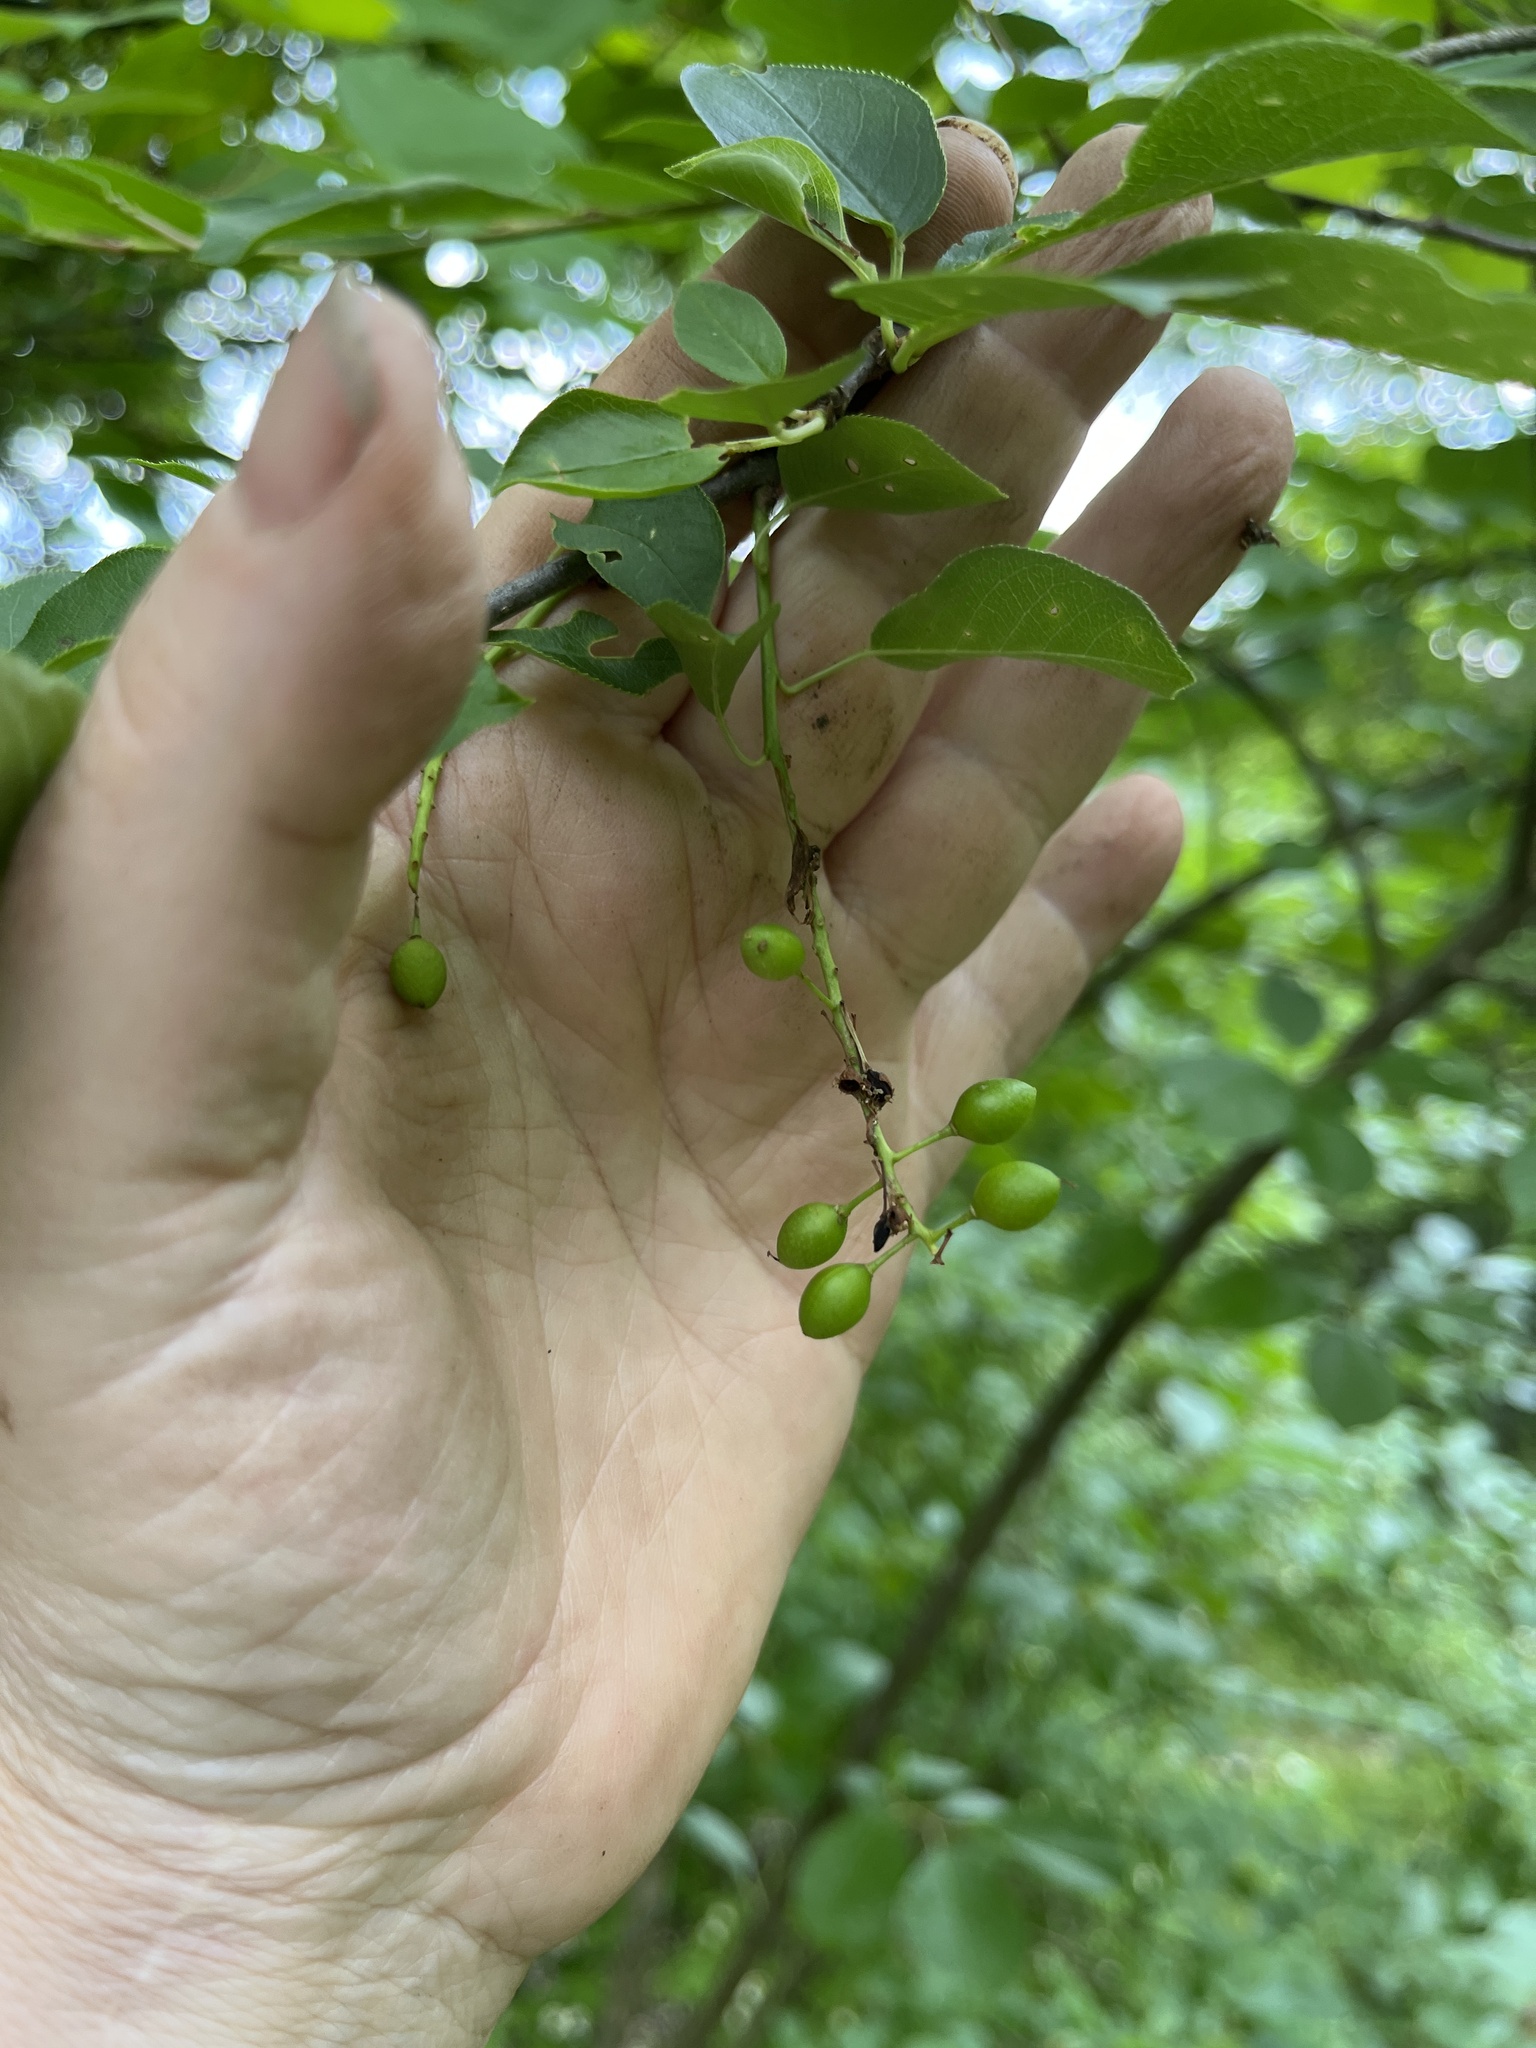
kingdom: Plantae
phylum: Tracheophyta
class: Magnoliopsida
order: Rosales
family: Rosaceae
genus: Prunus
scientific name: Prunus virginiana
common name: Chokecherry
